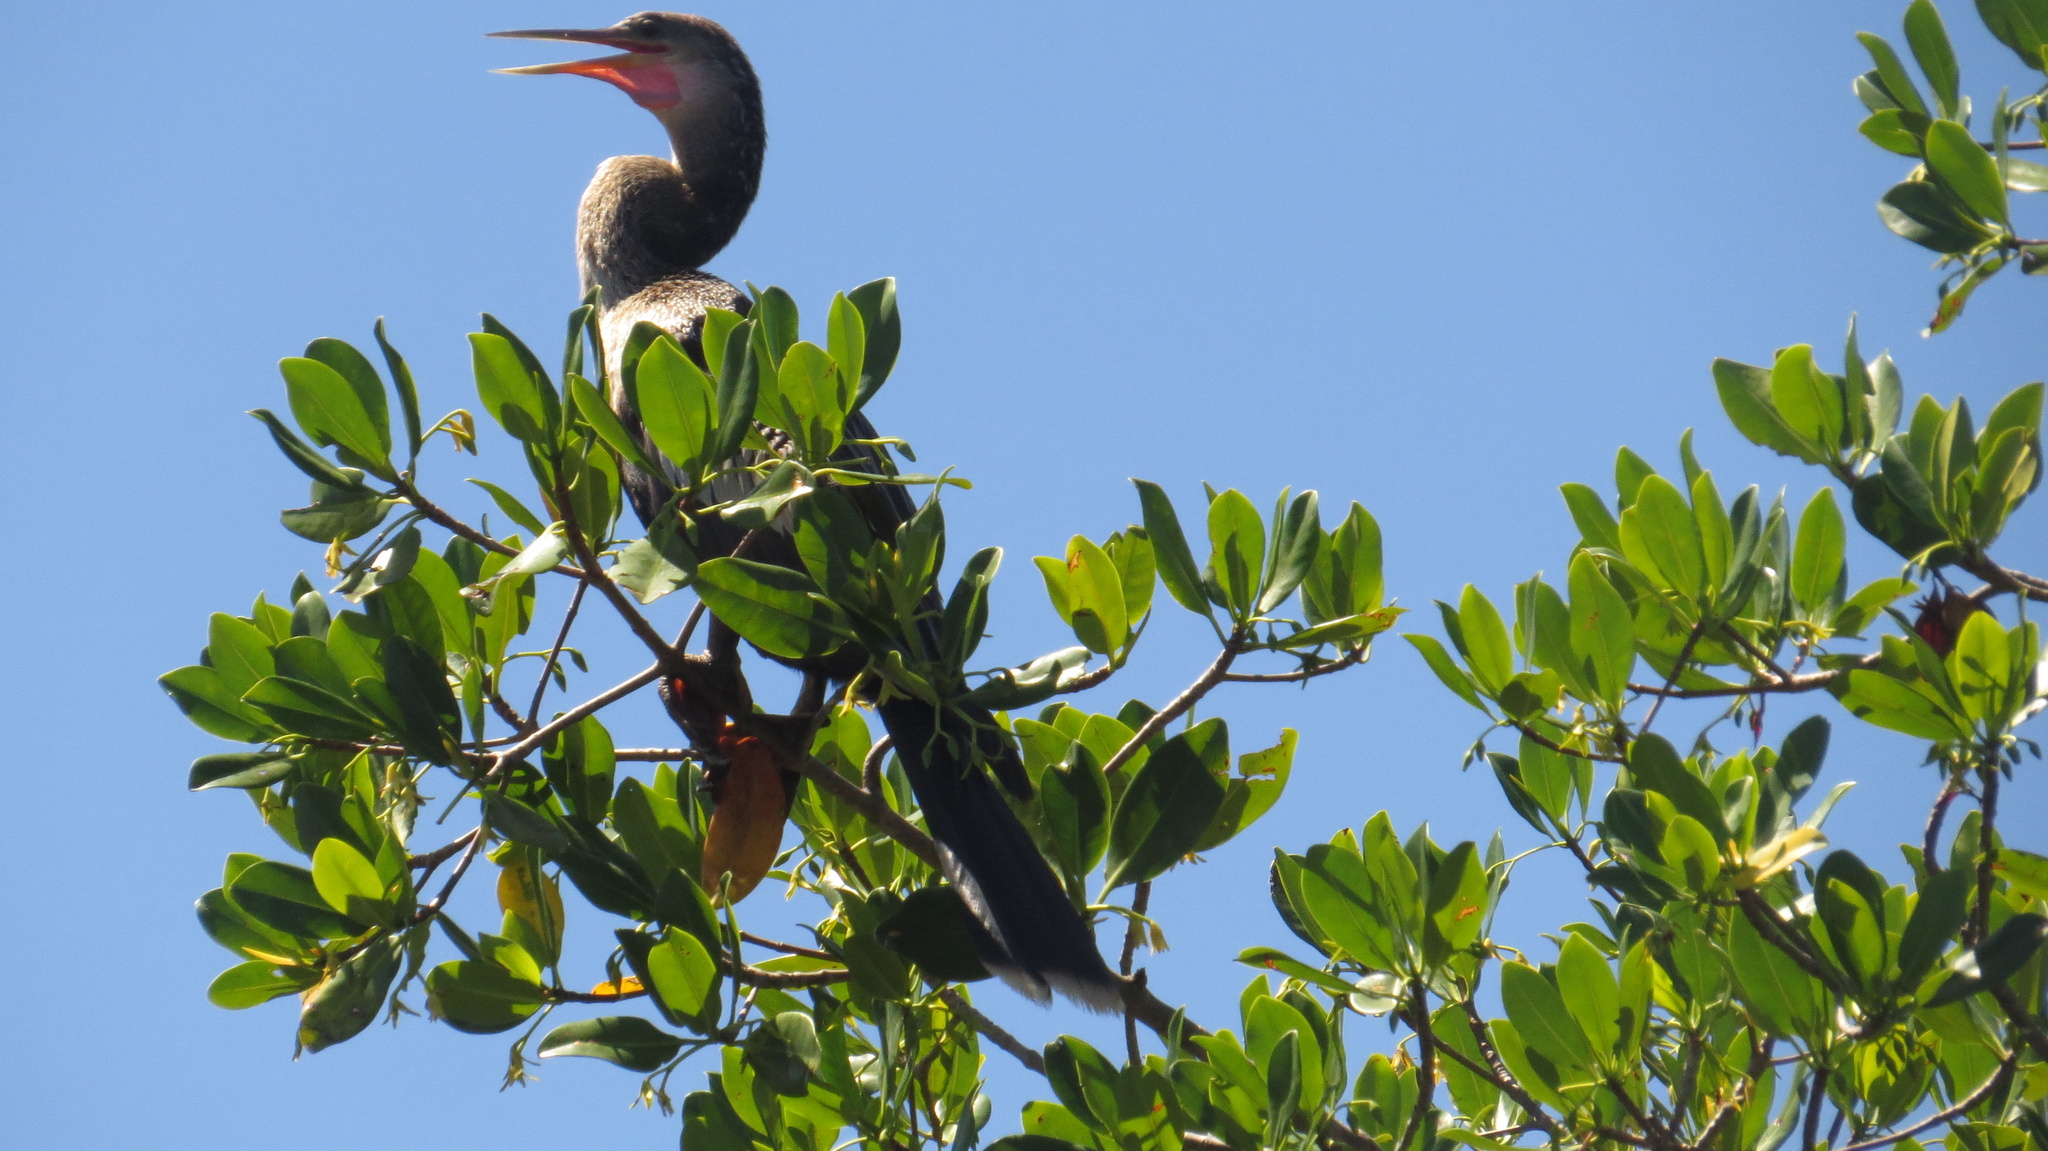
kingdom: Animalia
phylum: Chordata
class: Aves
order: Suliformes
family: Anhingidae
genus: Anhinga
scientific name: Anhinga anhinga
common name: Anhinga
